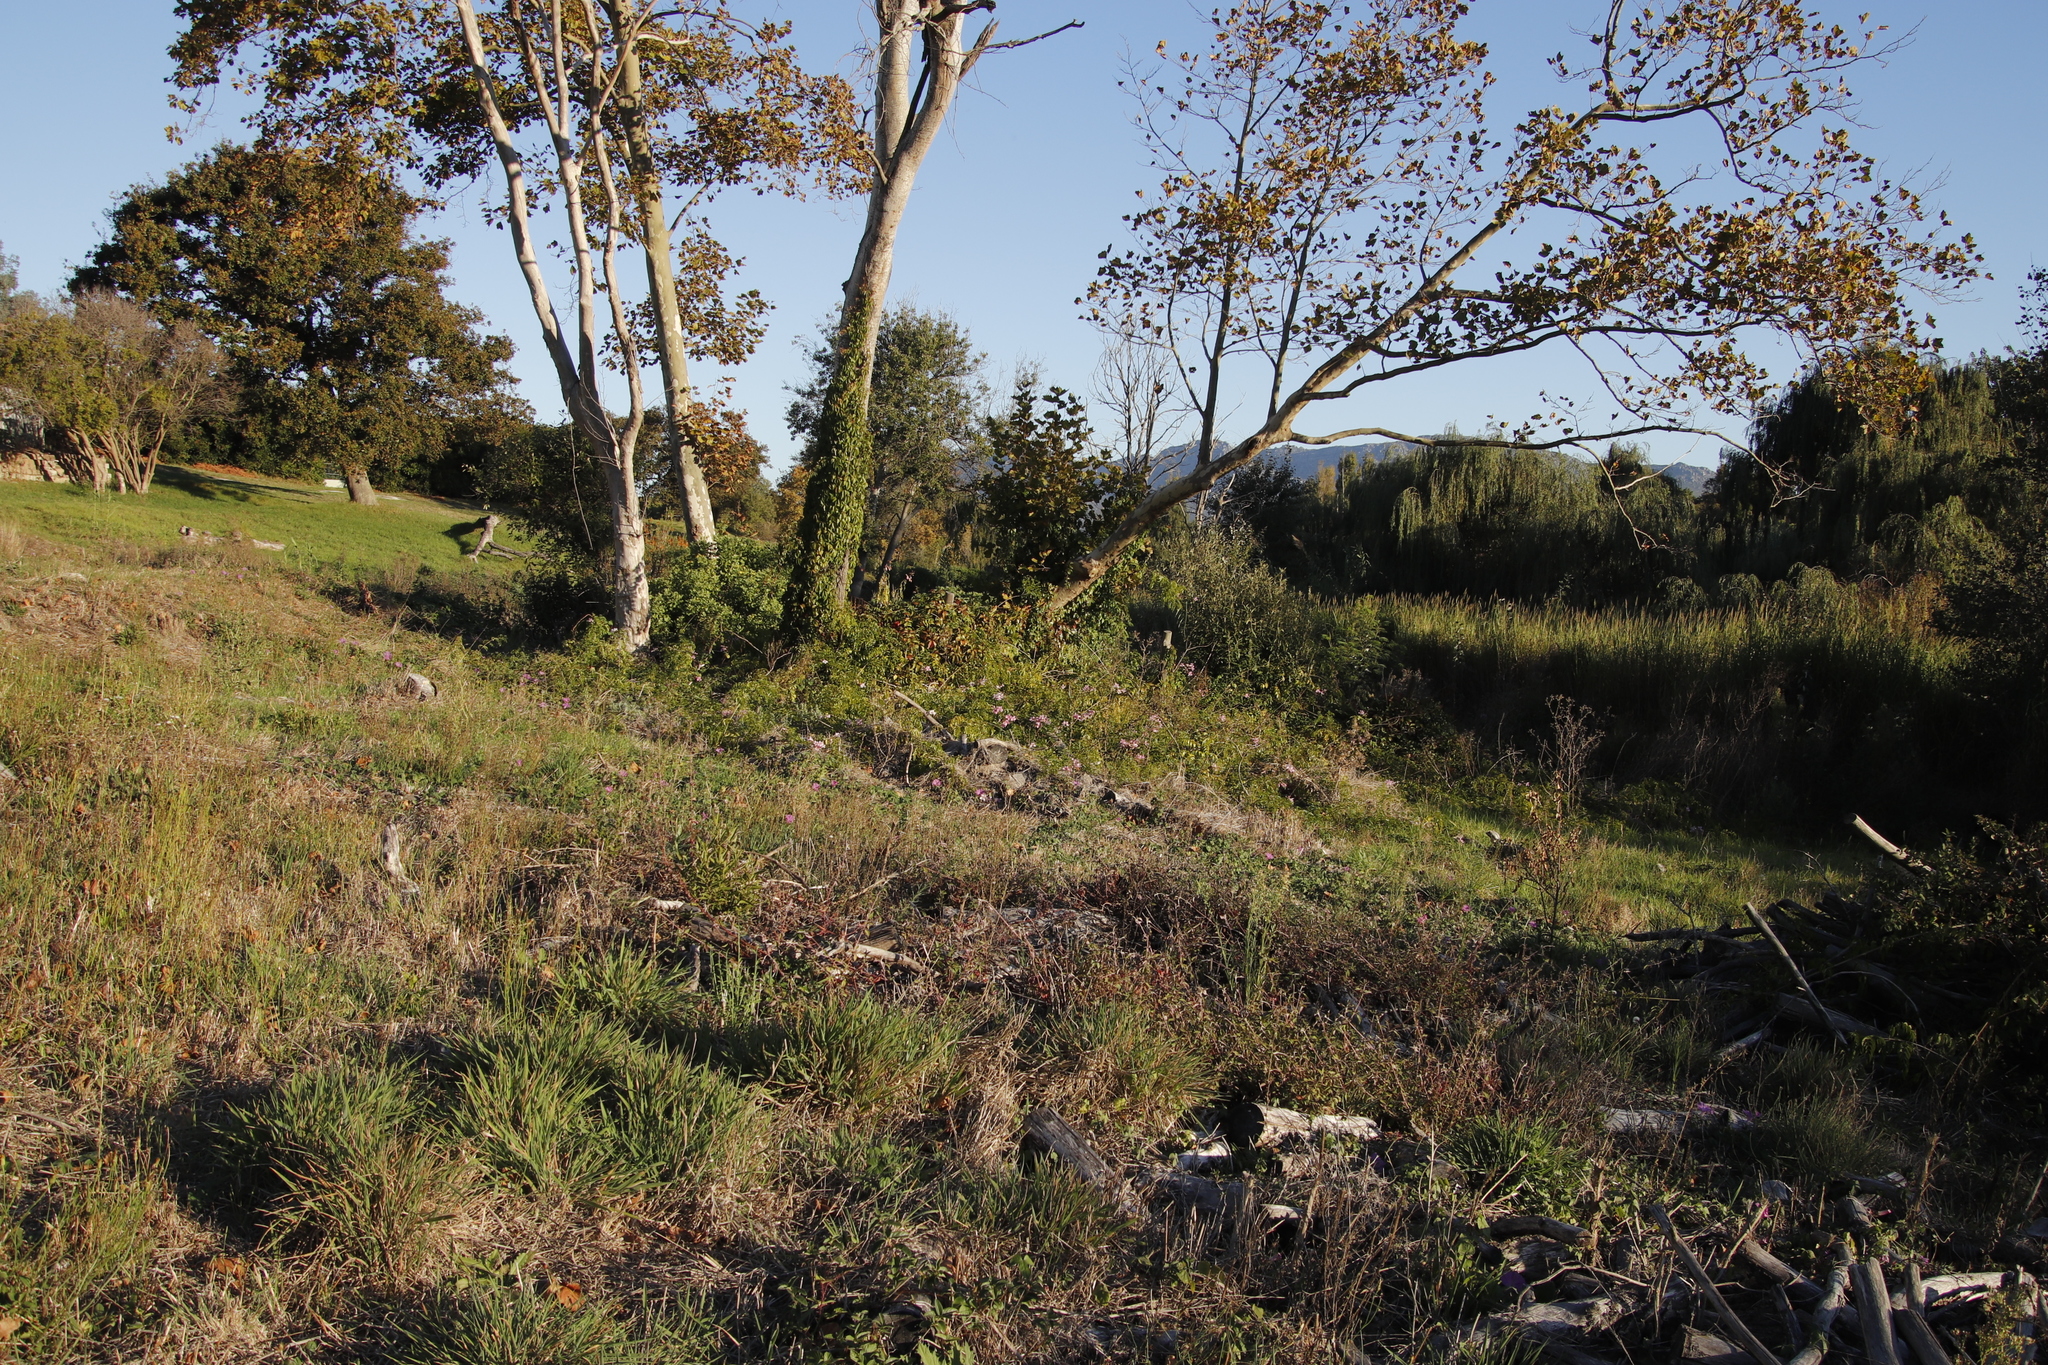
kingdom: Plantae
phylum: Tracheophyta
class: Magnoliopsida
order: Lamiales
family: Bignoniaceae
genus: Podranea
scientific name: Podranea ricasoliana
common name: Zimbabwe creeper
